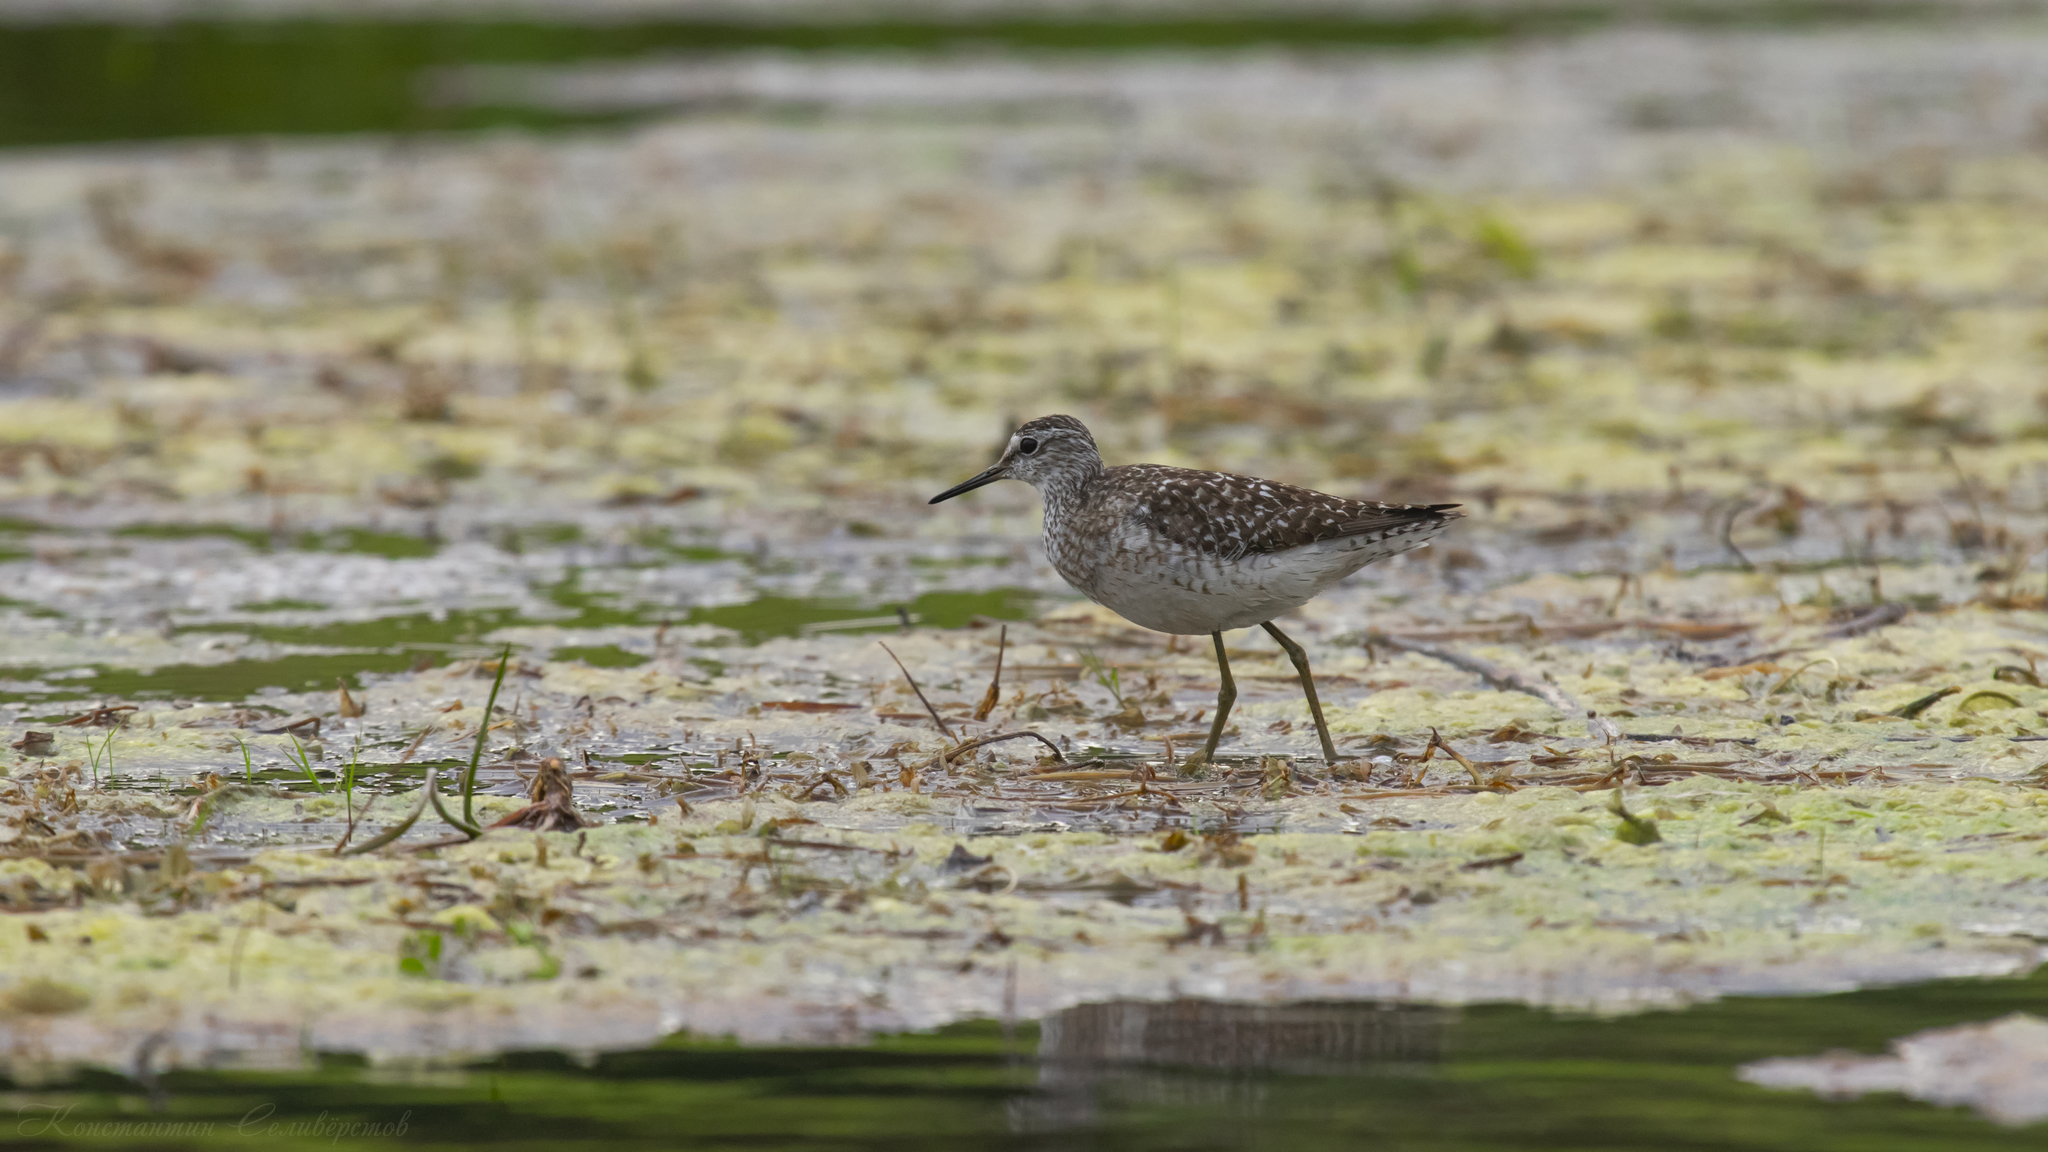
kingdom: Animalia
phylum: Chordata
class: Aves
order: Charadriiformes
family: Scolopacidae
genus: Tringa
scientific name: Tringa glareola
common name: Wood sandpiper
